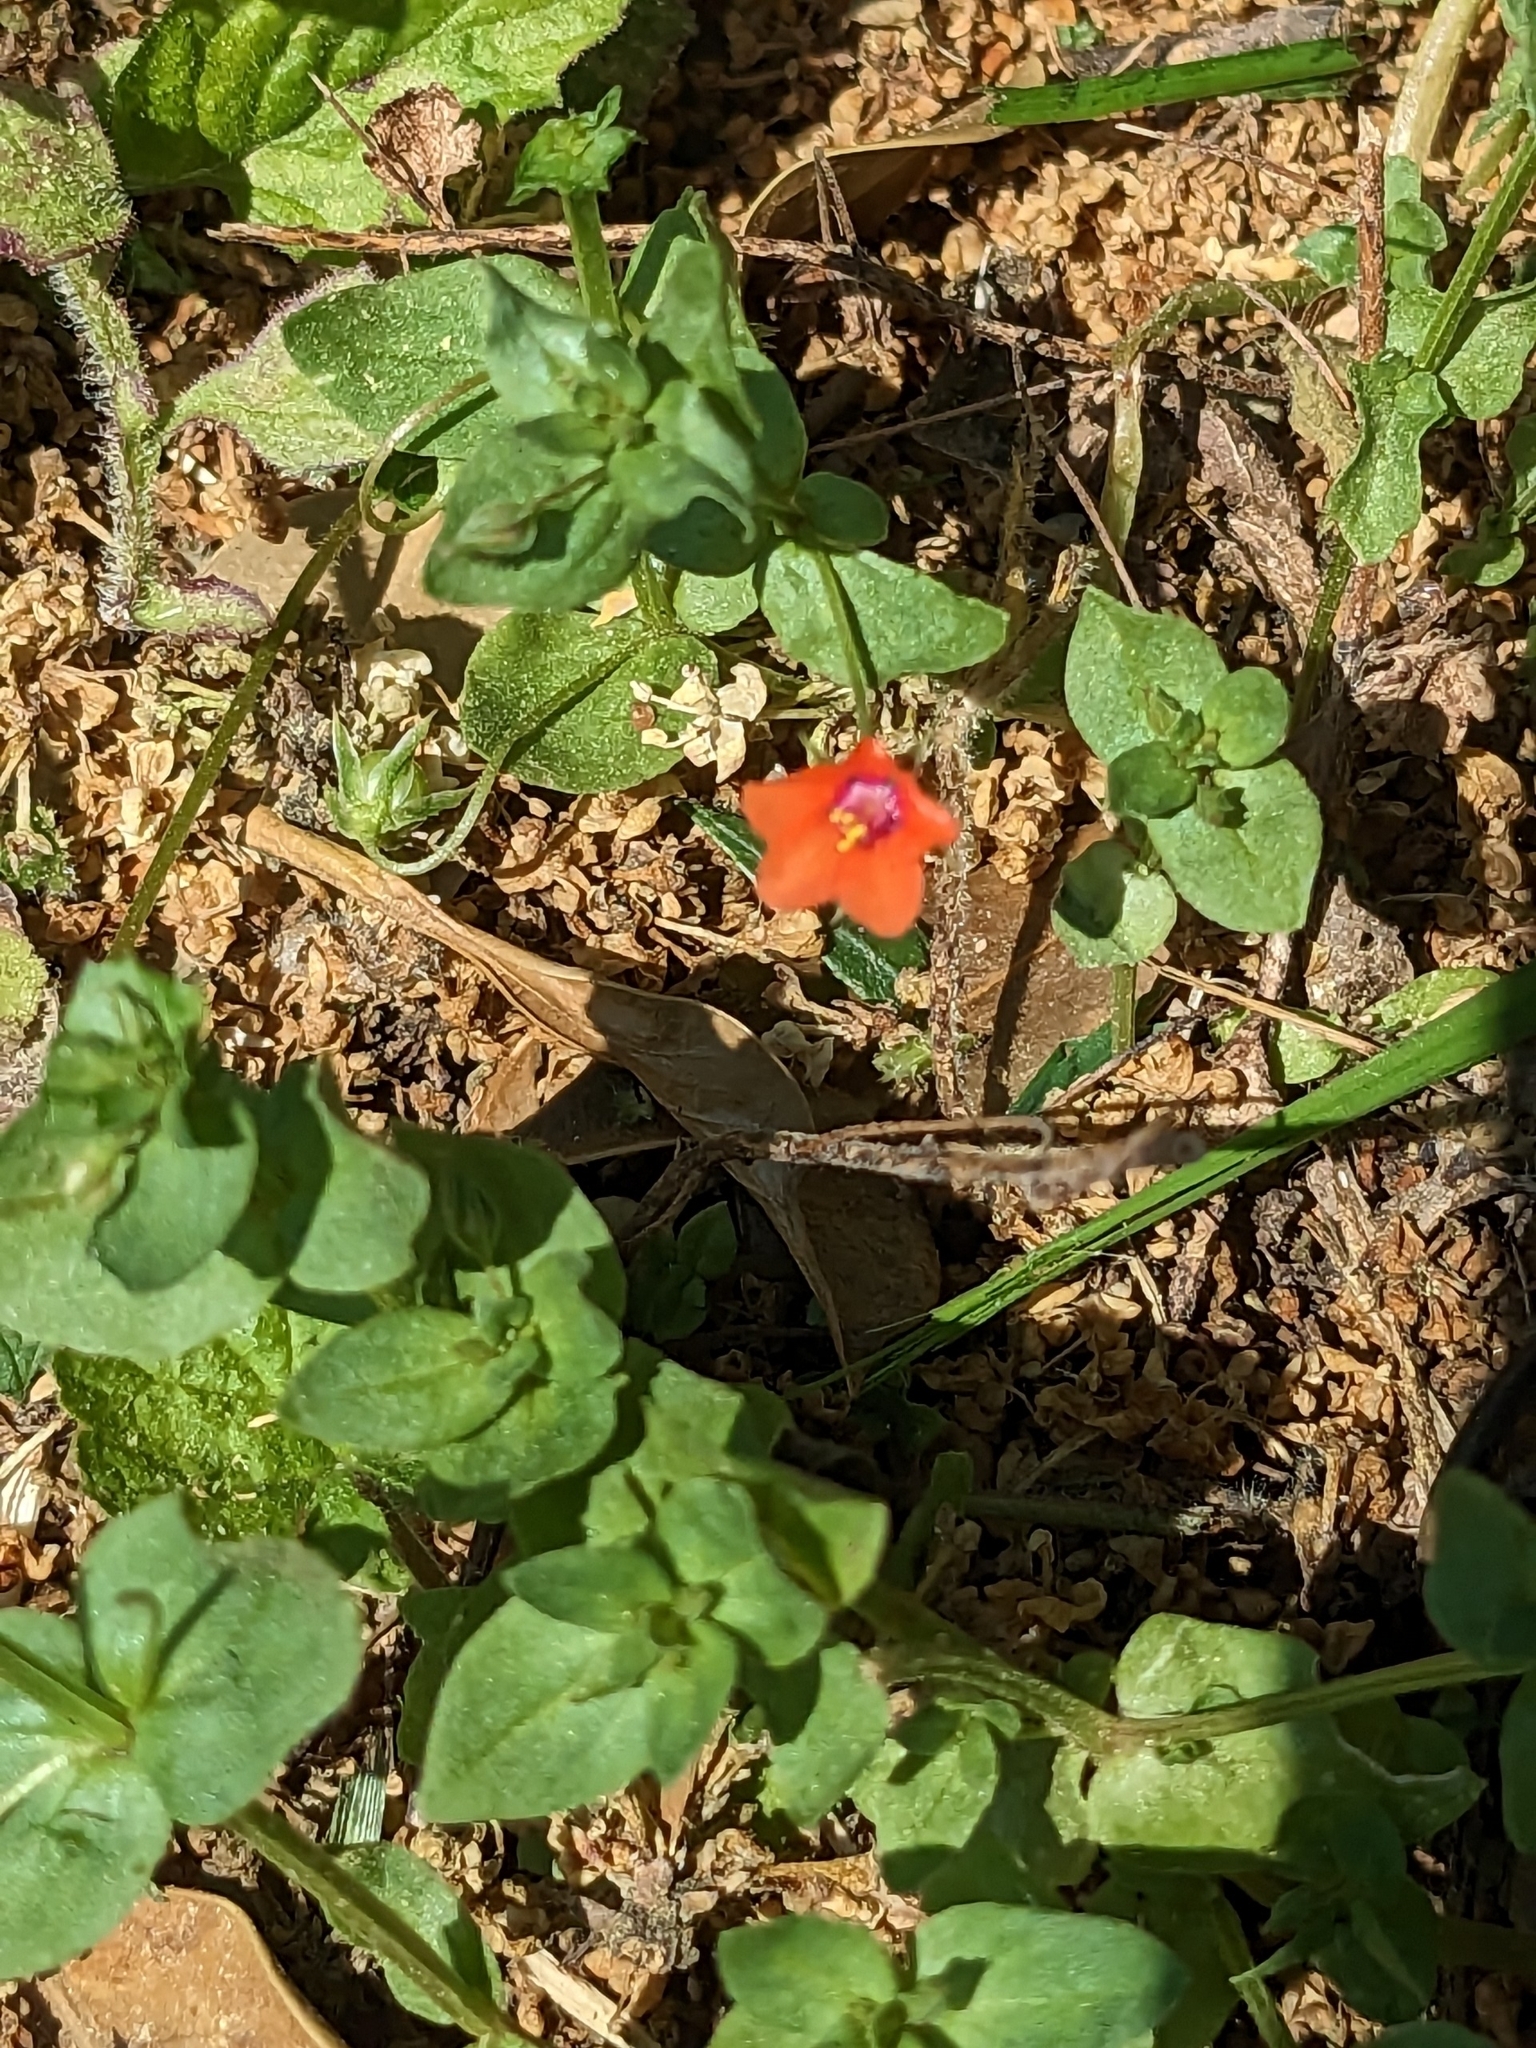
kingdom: Plantae
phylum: Tracheophyta
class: Magnoliopsida
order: Ericales
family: Primulaceae
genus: Lysimachia
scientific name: Lysimachia arvensis
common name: Scarlet pimpernel
